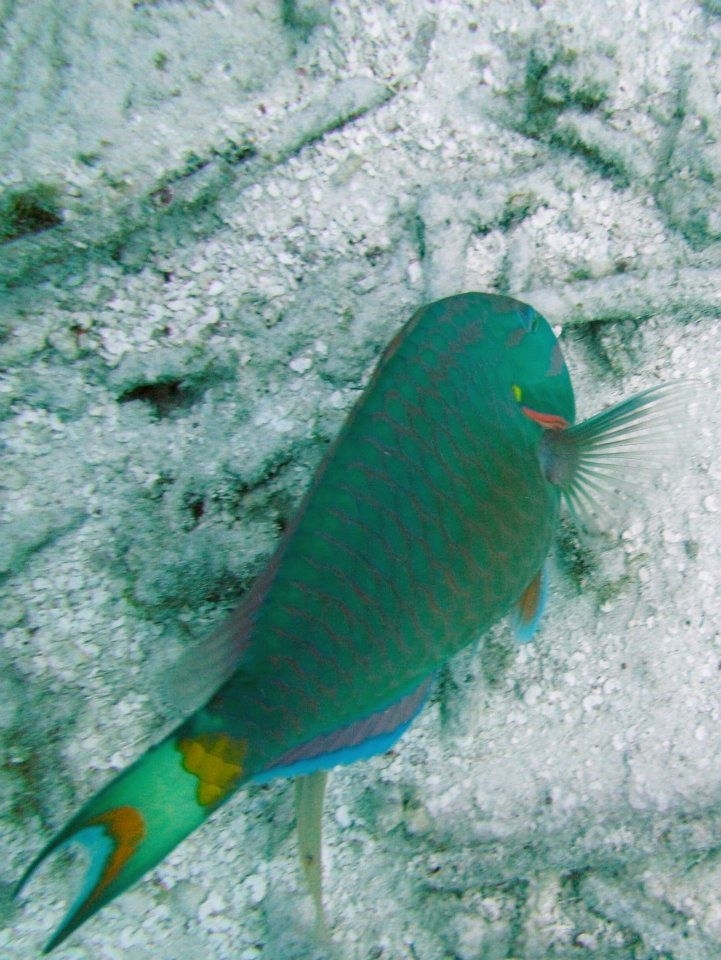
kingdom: Animalia
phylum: Chordata
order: Perciformes
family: Scaridae
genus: Sparisoma
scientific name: Sparisoma viride
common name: Stoplight parrotfish
